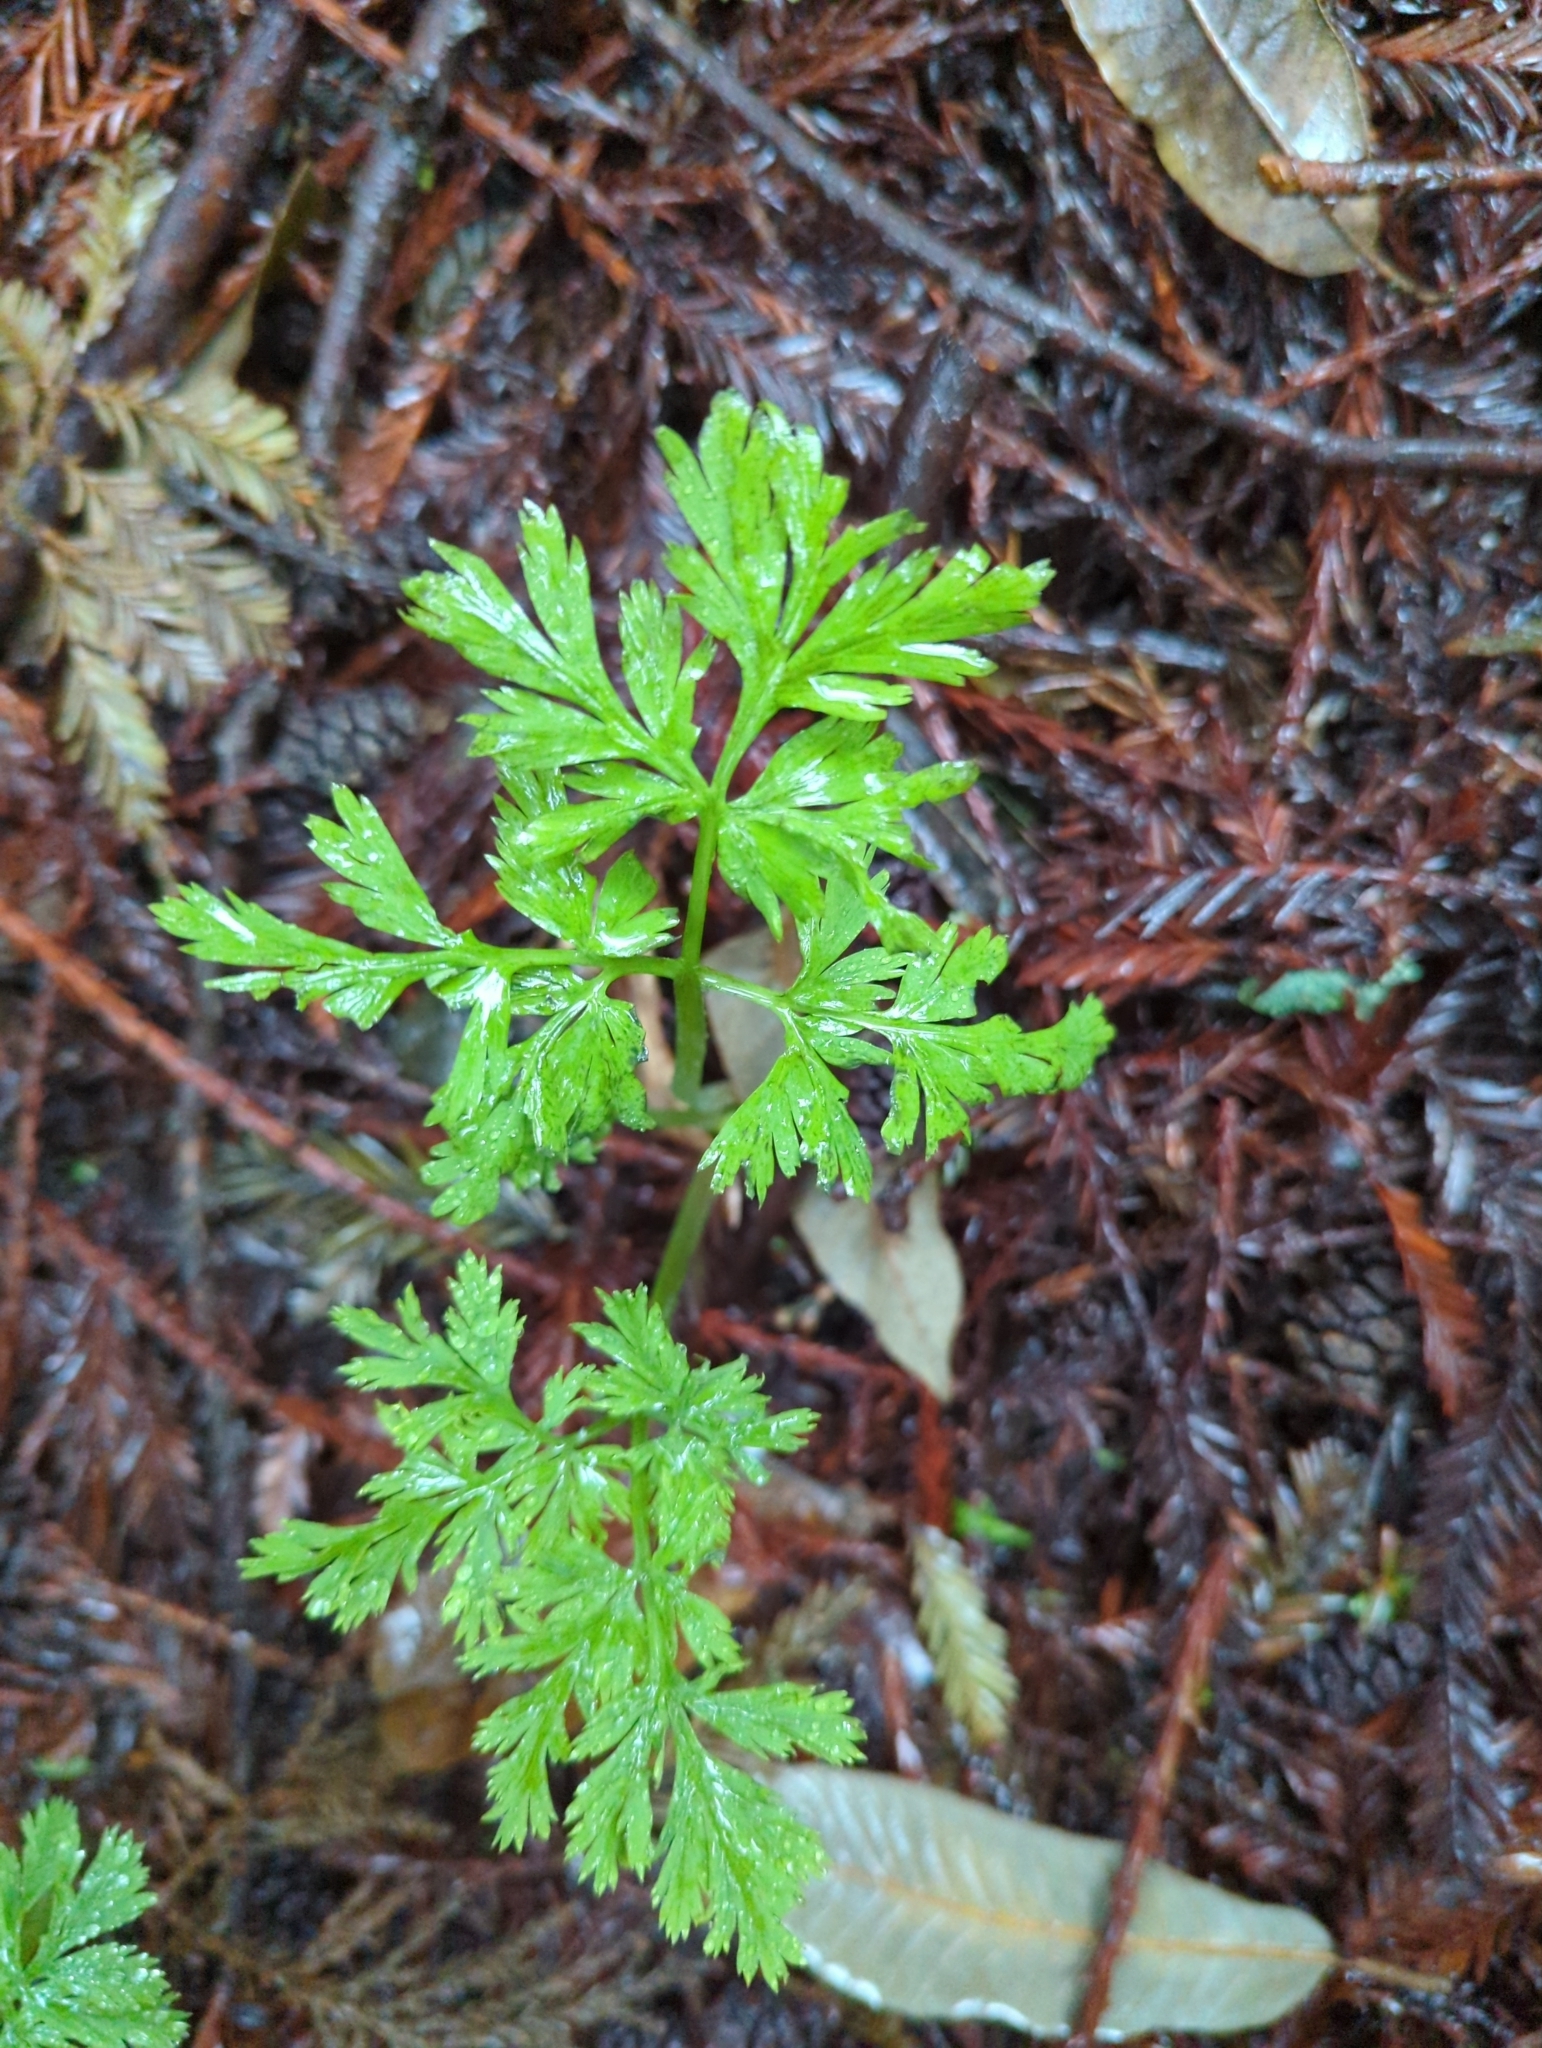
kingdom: Plantae
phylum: Tracheophyta
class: Magnoliopsida
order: Ranunculales
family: Papaveraceae
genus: Dicentra
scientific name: Dicentra formosa
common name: Bleeding-heart
